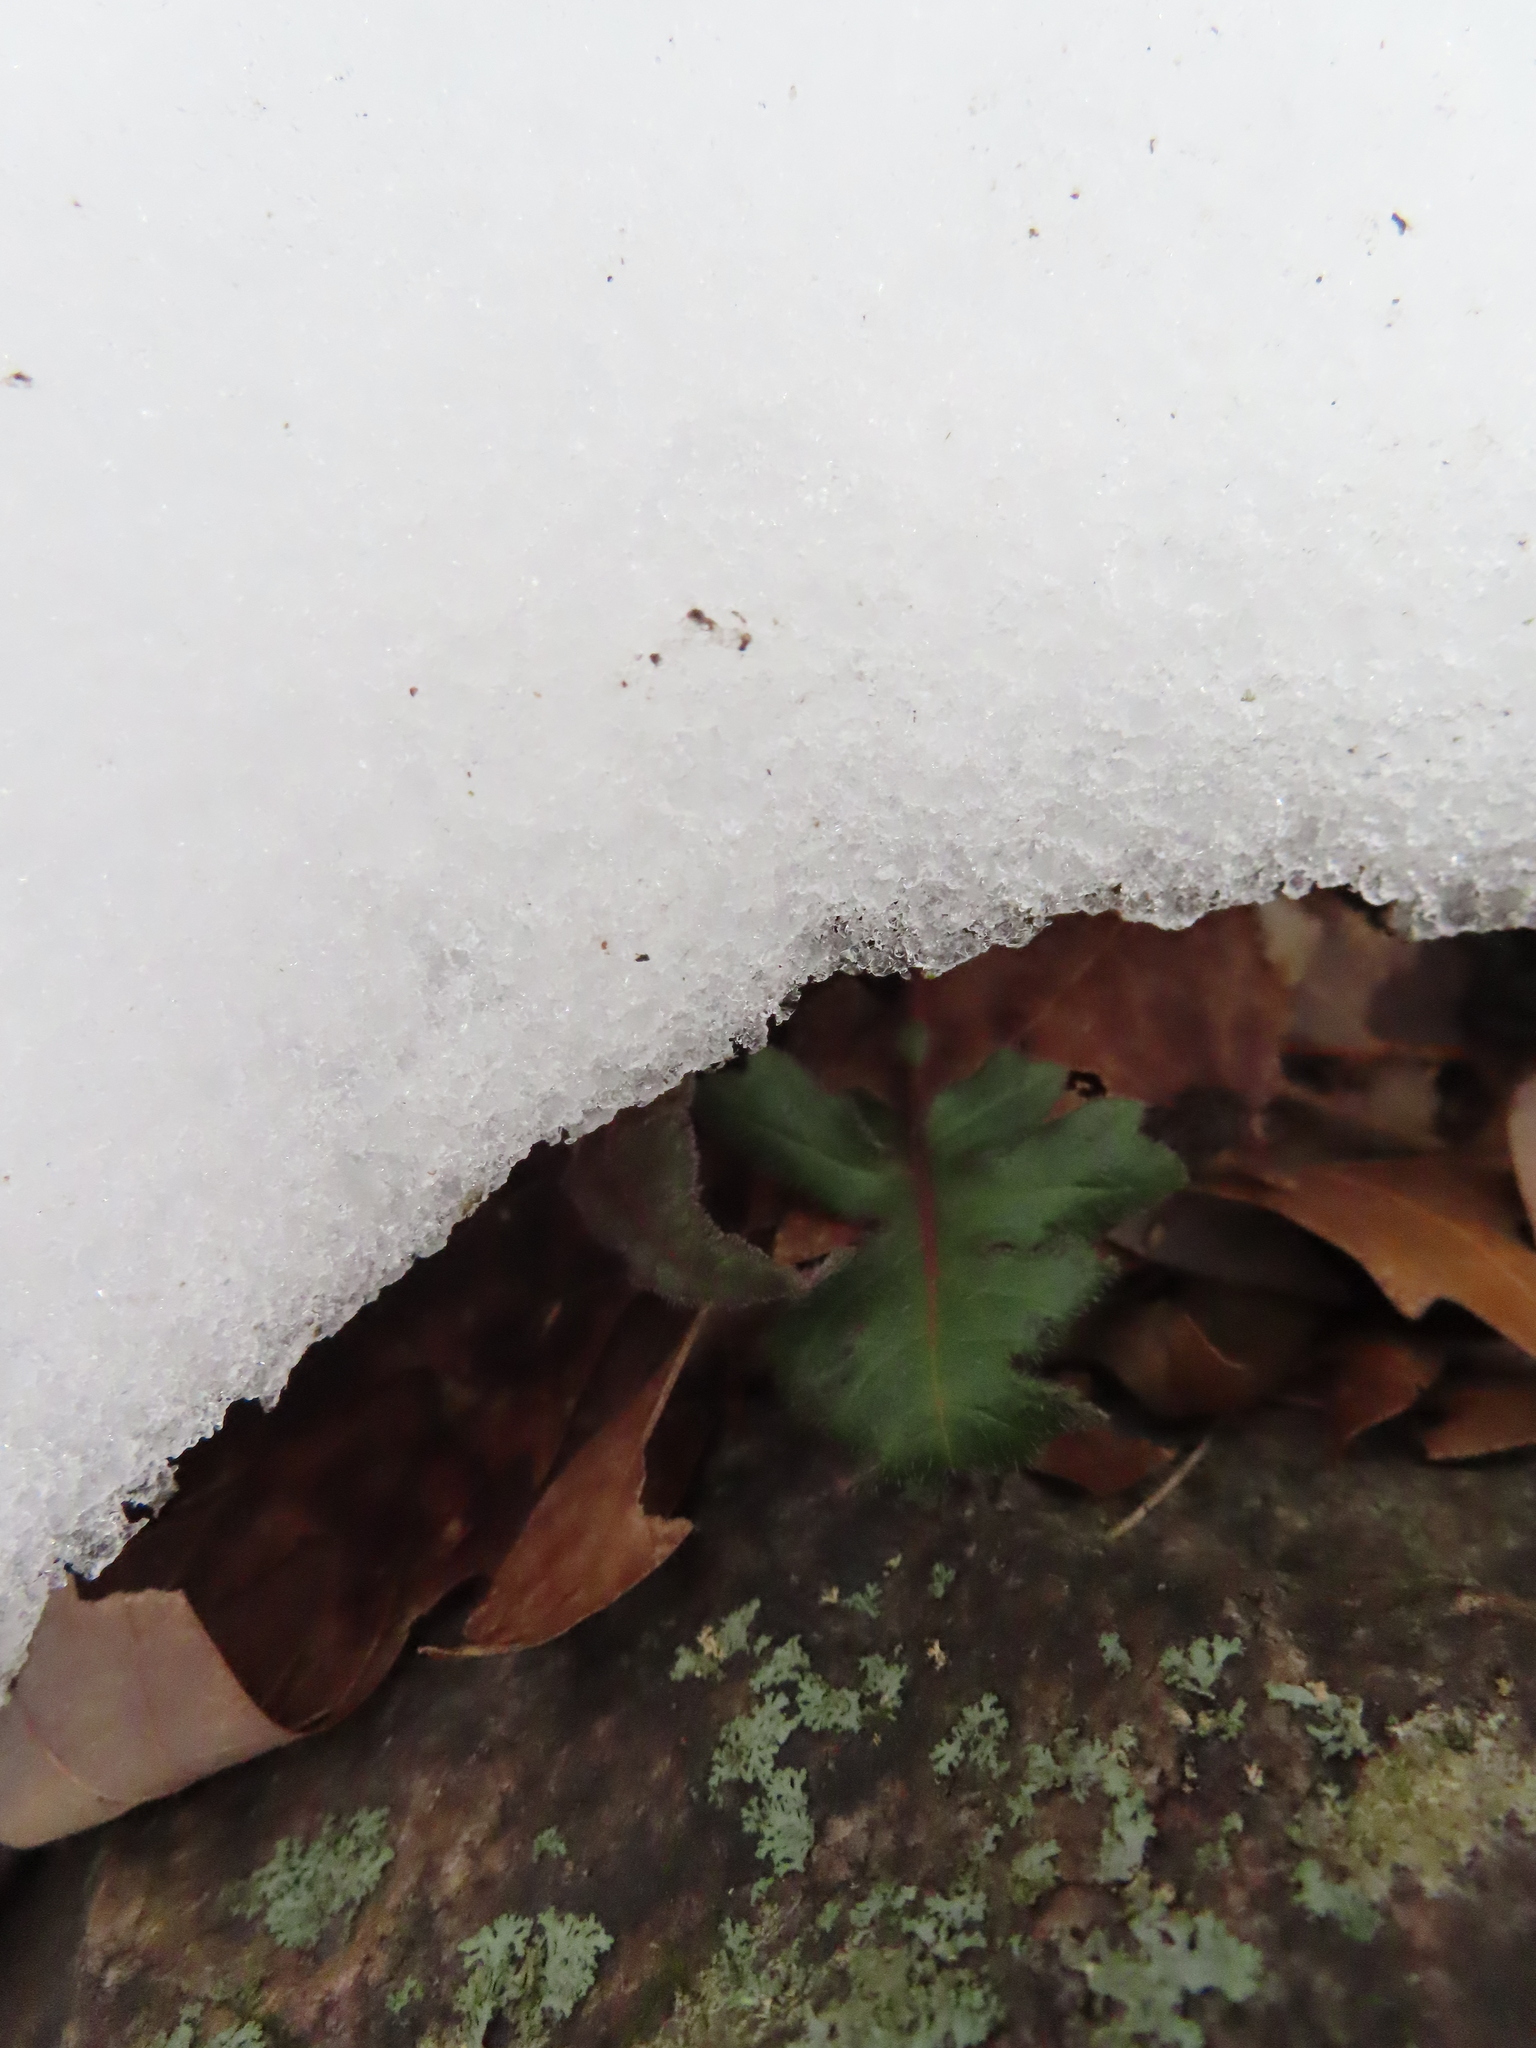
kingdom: Plantae
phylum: Tracheophyta
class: Magnoliopsida
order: Asterales
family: Asteraceae
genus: Polymnia
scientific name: Polymnia canadensis
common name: Pale-flowered leafcup
